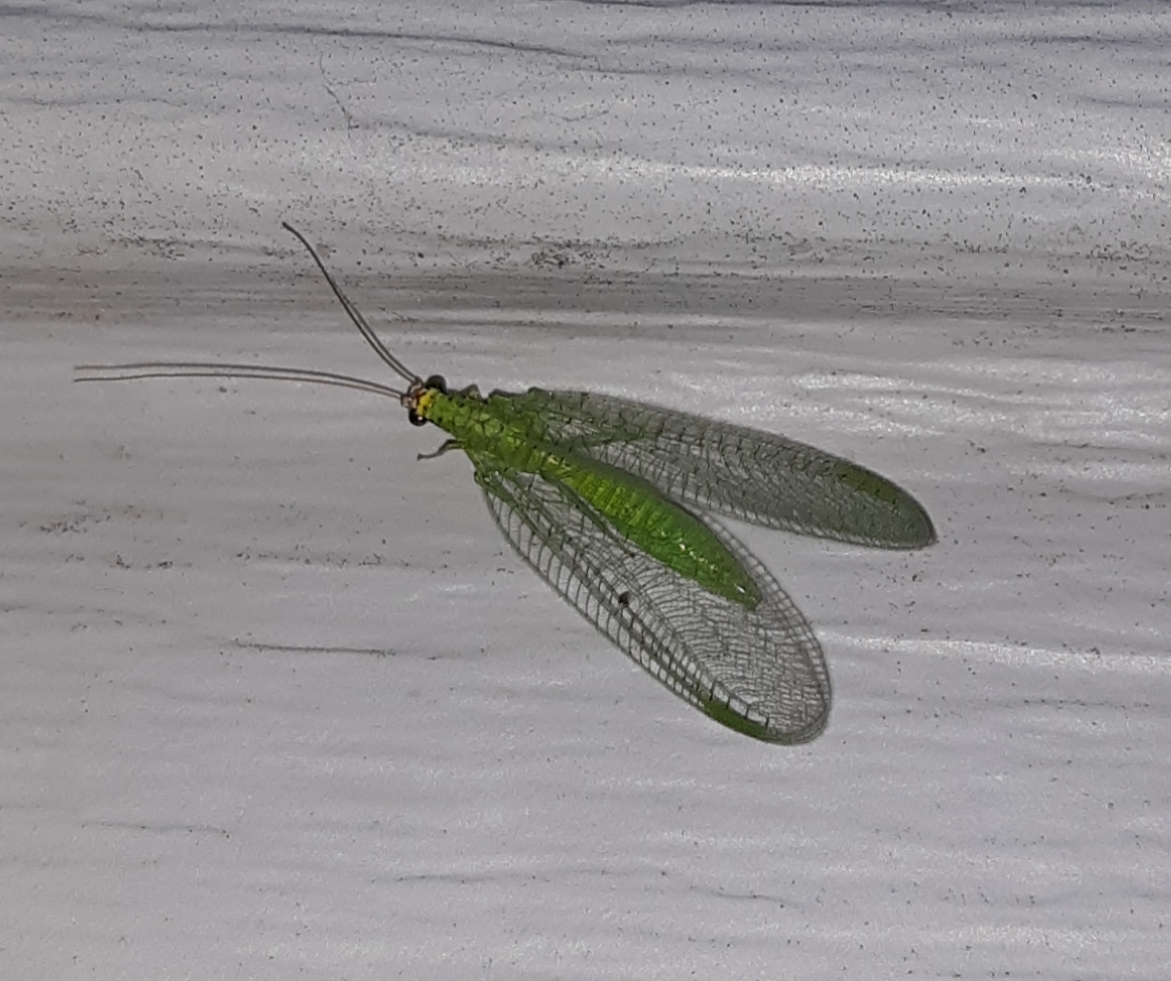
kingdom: Animalia
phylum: Arthropoda
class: Insecta
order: Neuroptera
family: Chrysopidae
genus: Chrysopa
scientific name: Chrysopa oculata
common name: Golden-eyed lacewing
